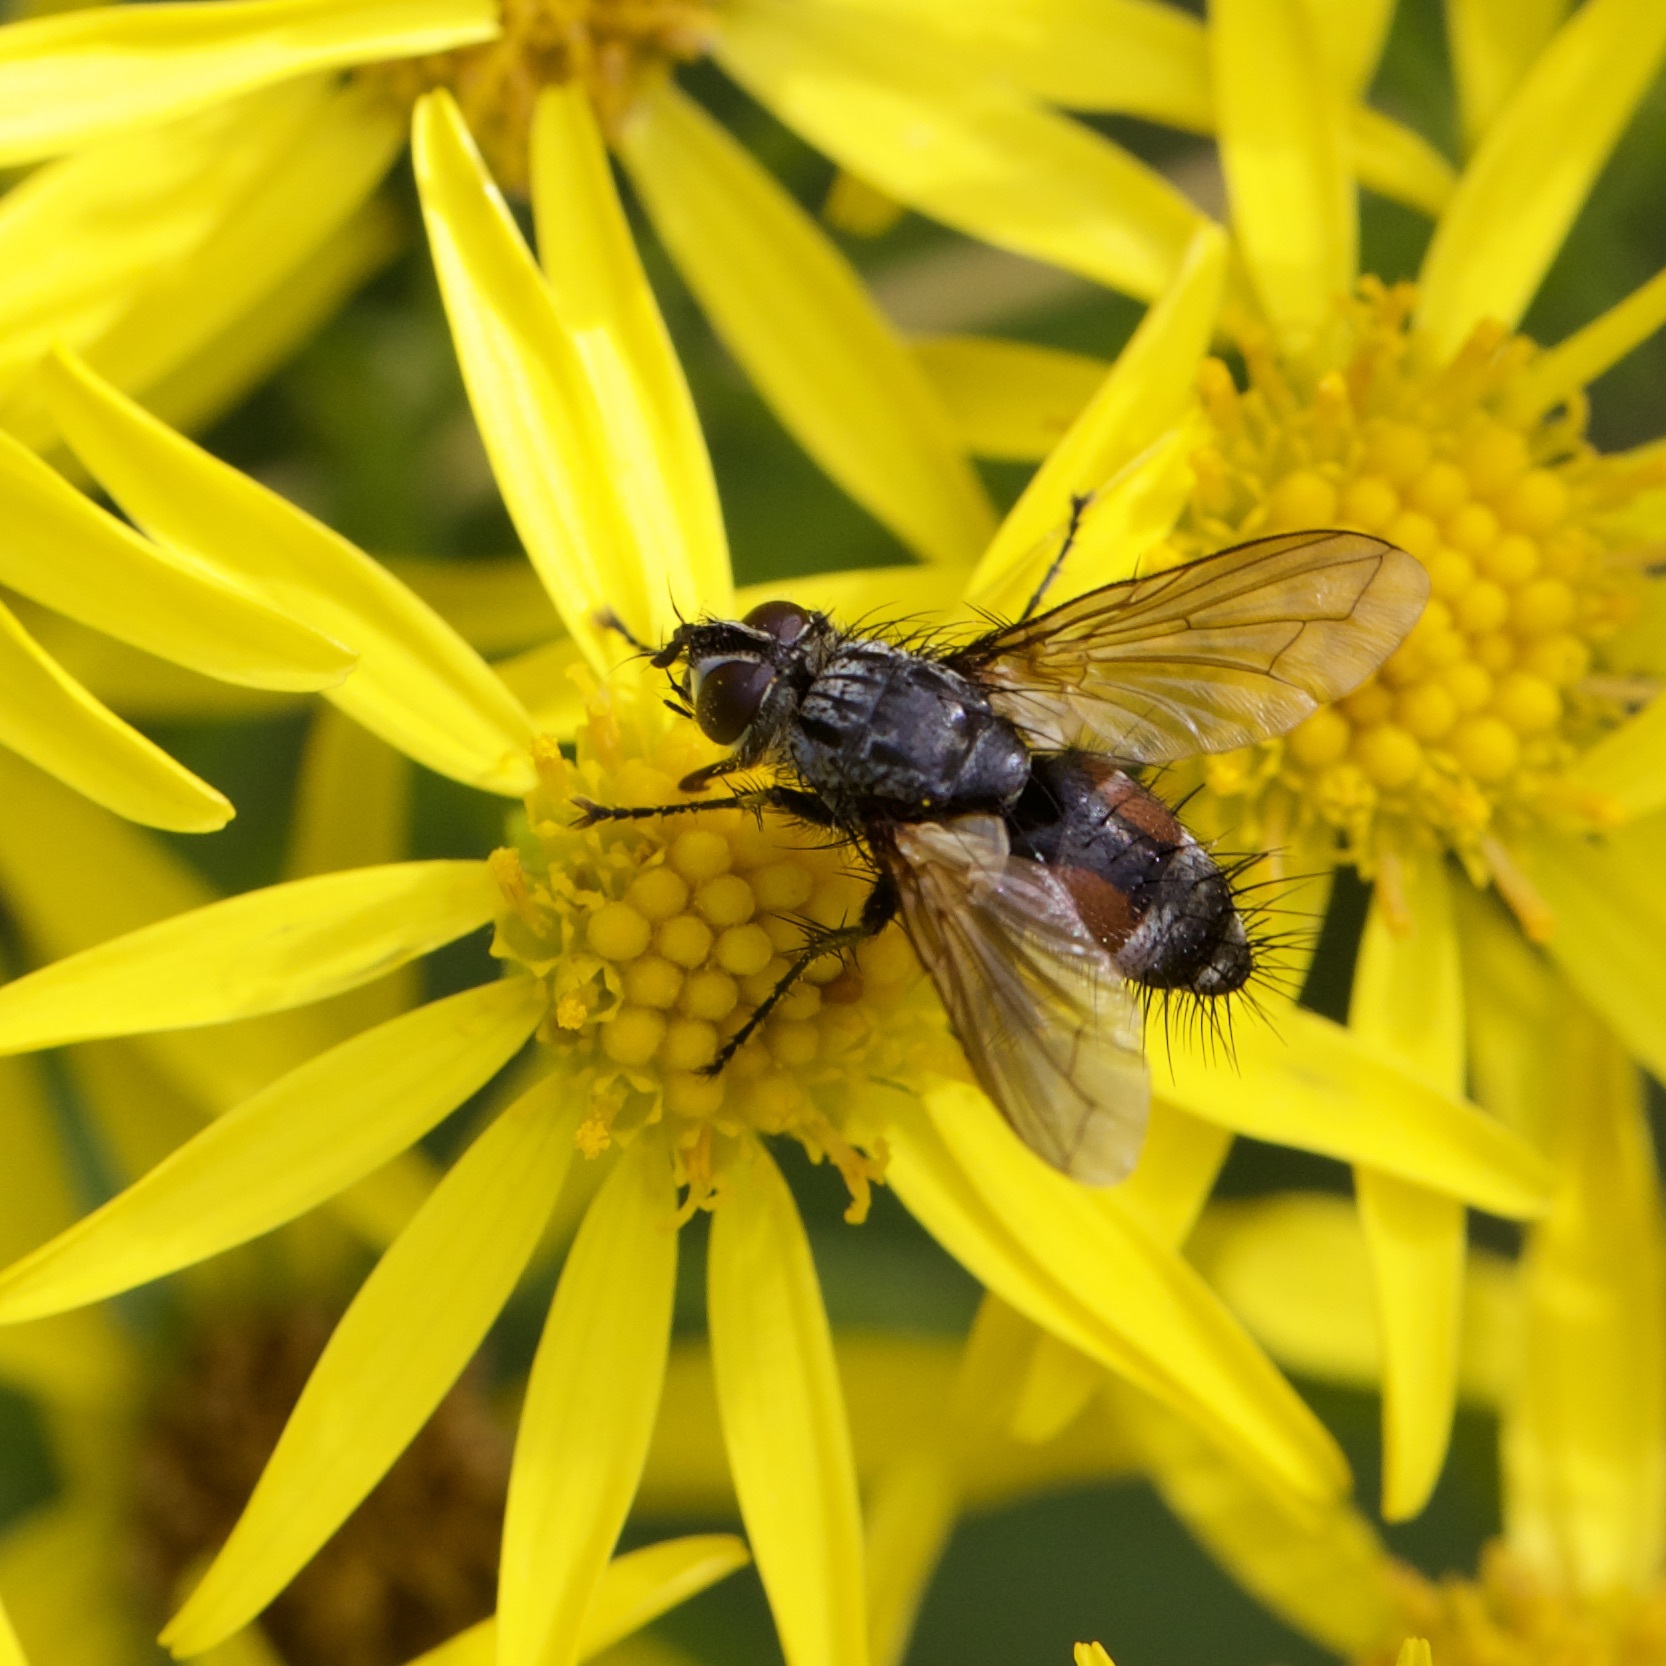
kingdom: Animalia
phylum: Arthropoda
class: Insecta
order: Diptera
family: Tachinidae
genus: Eriothrix
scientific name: Eriothrix rufomaculatus
